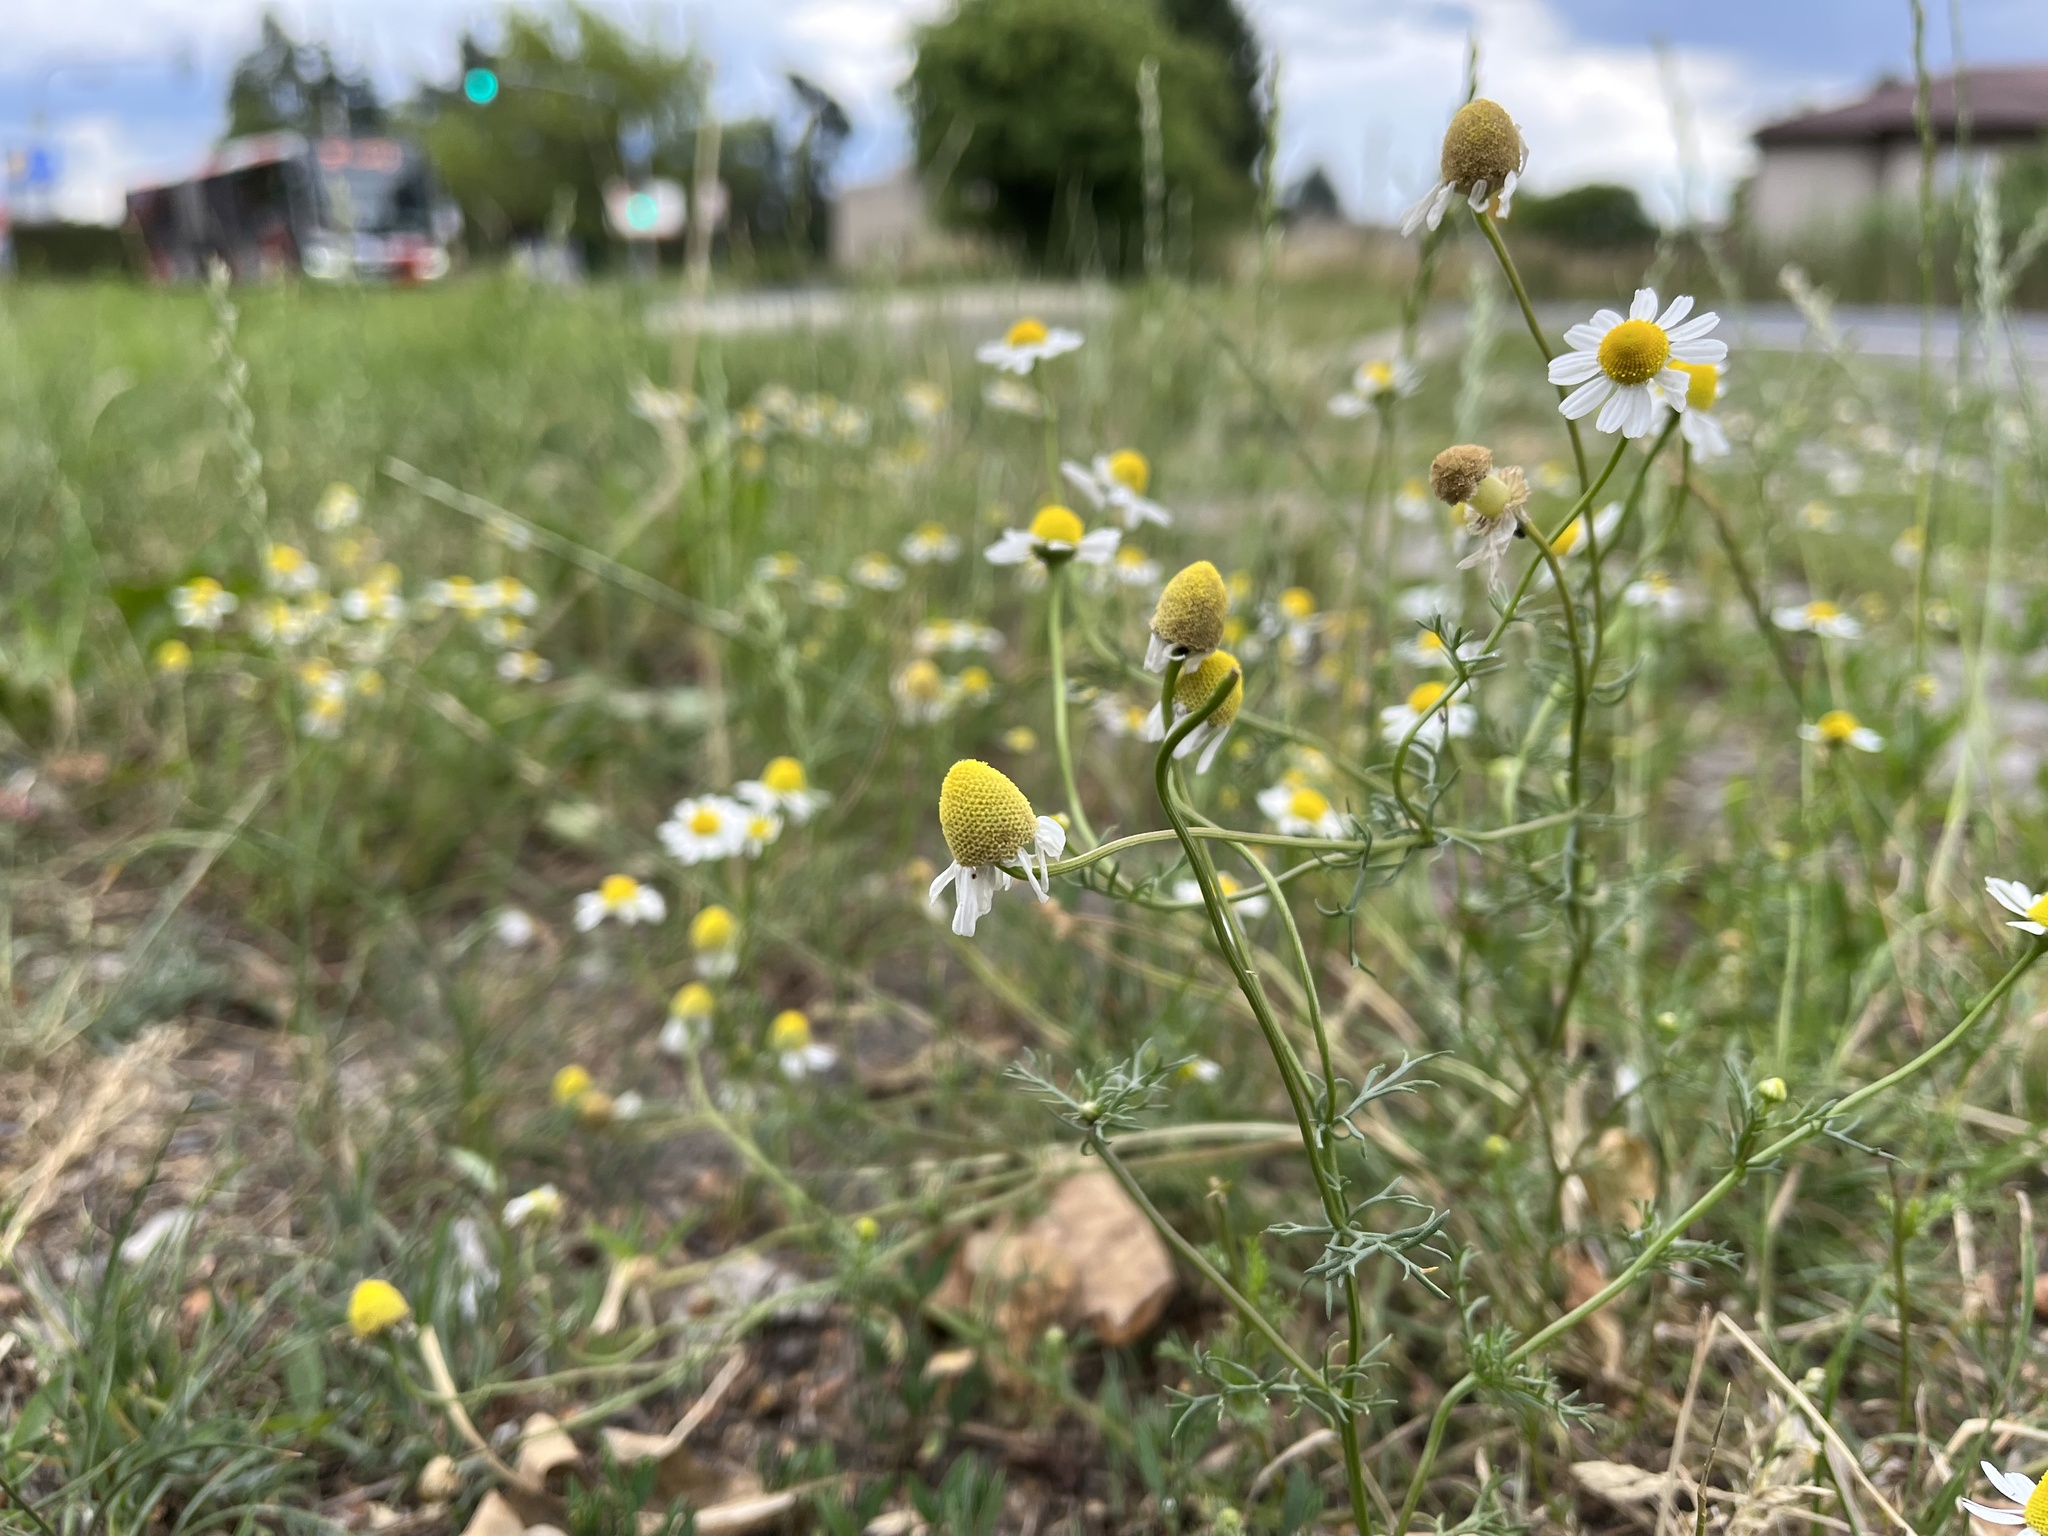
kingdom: Plantae
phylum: Tracheophyta
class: Magnoliopsida
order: Asterales
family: Asteraceae
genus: Matricaria
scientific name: Matricaria chamomilla
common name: Scented mayweed
